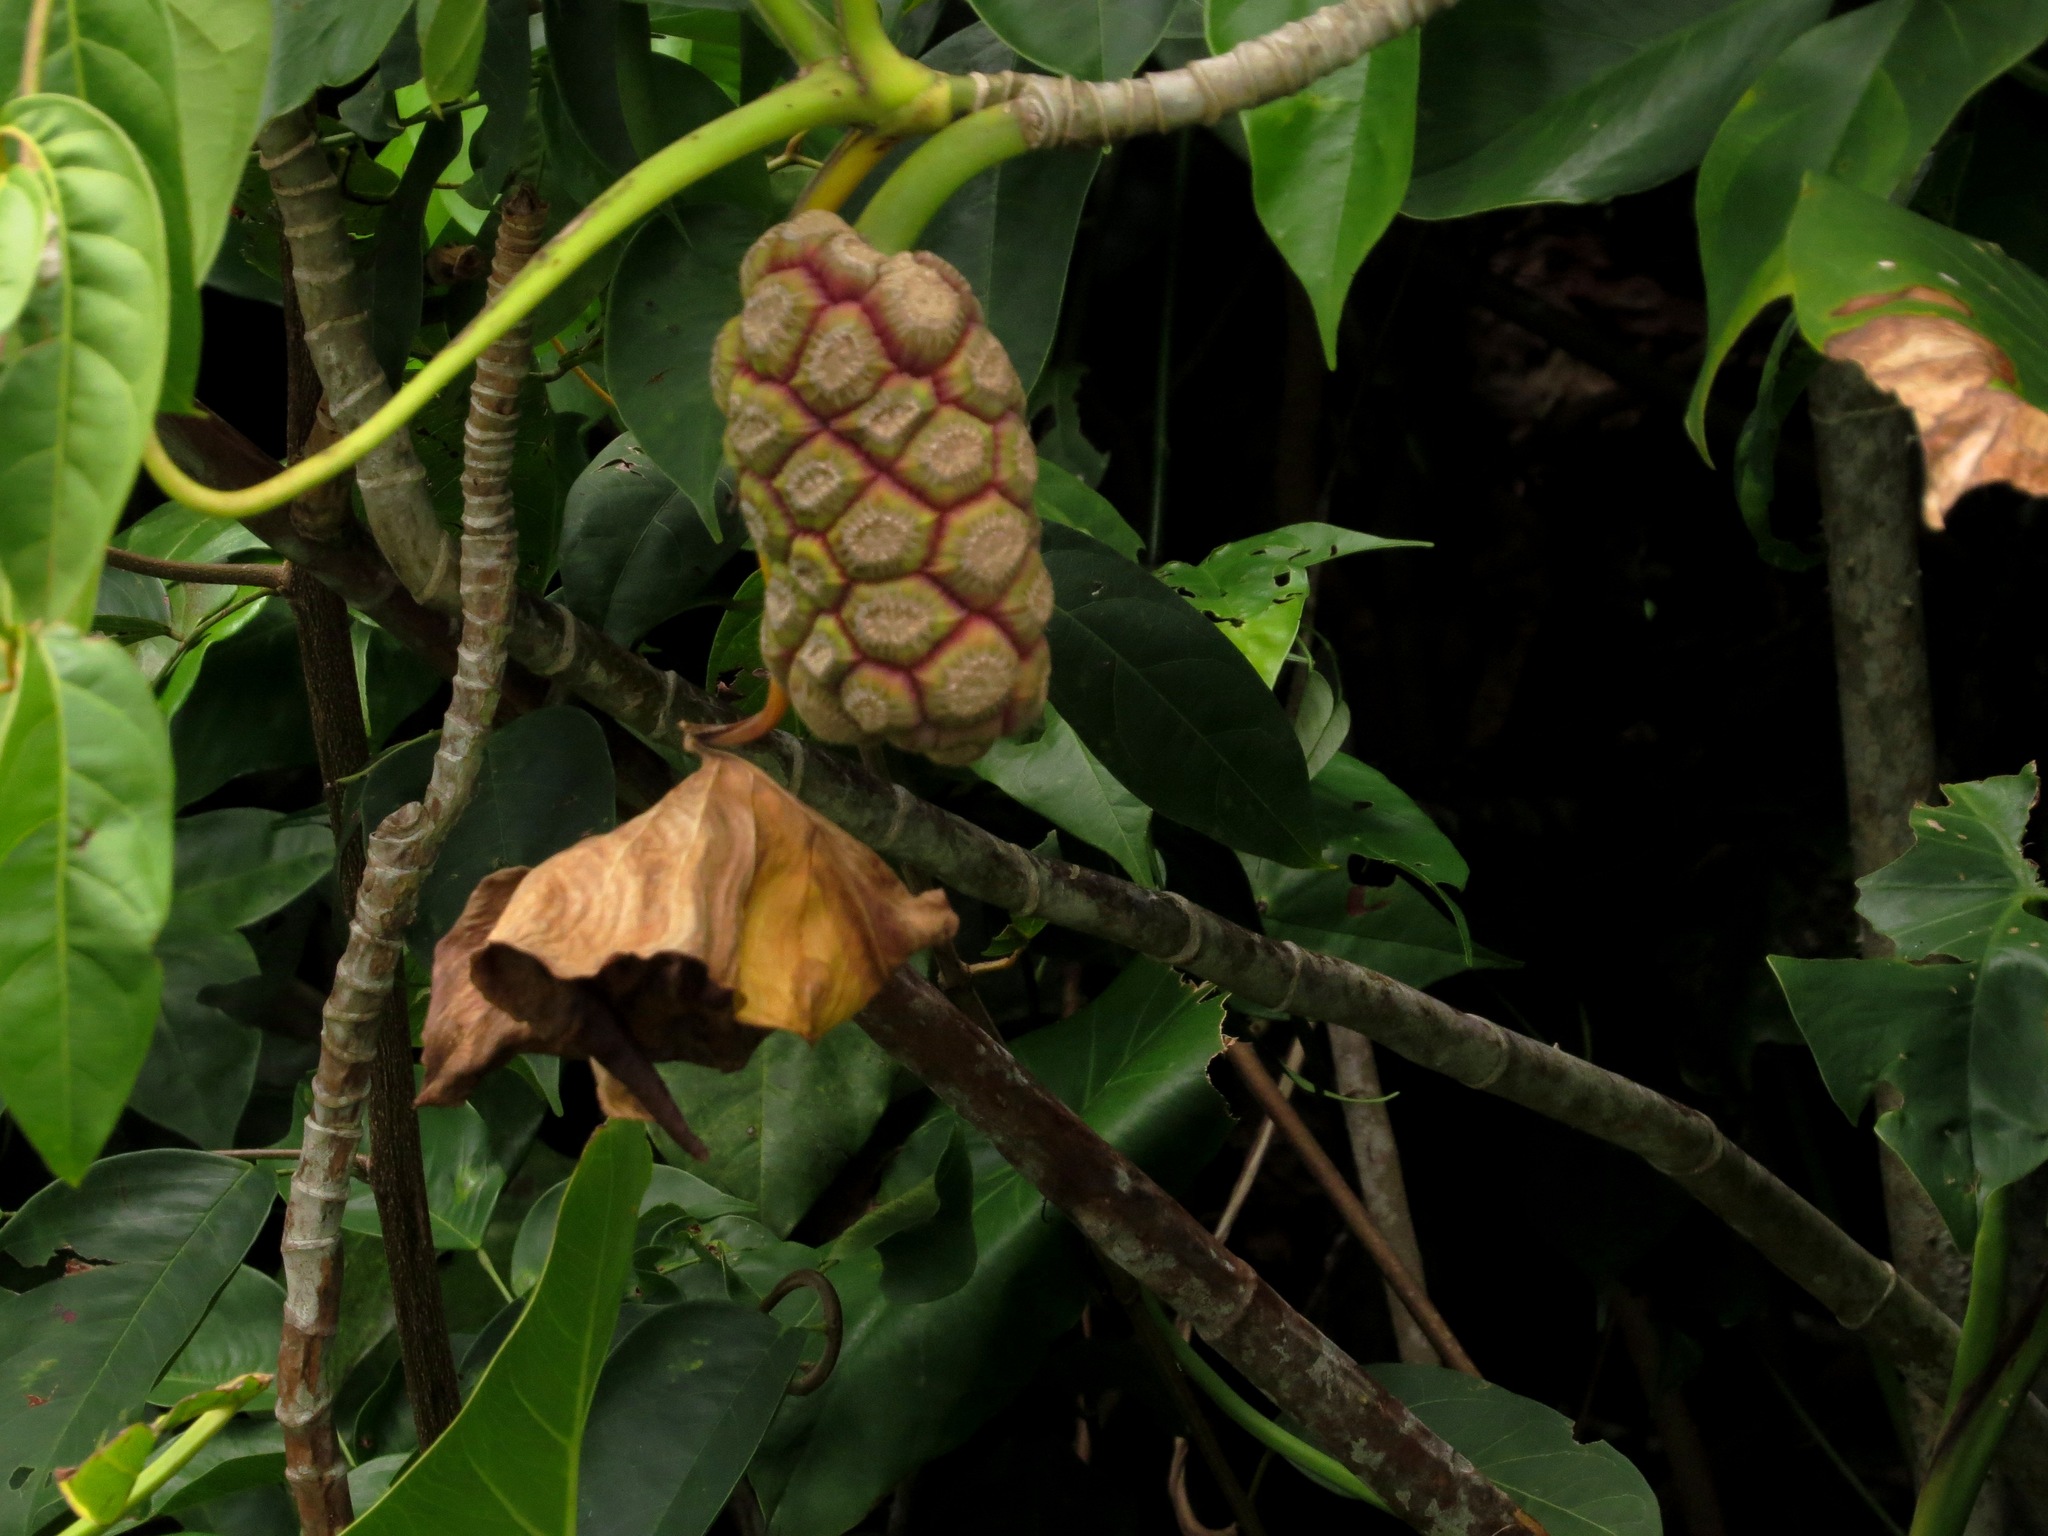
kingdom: Plantae
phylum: Tracheophyta
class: Liliopsida
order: Alismatales
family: Araceae
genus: Montrichardia
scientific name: Montrichardia arborescens
